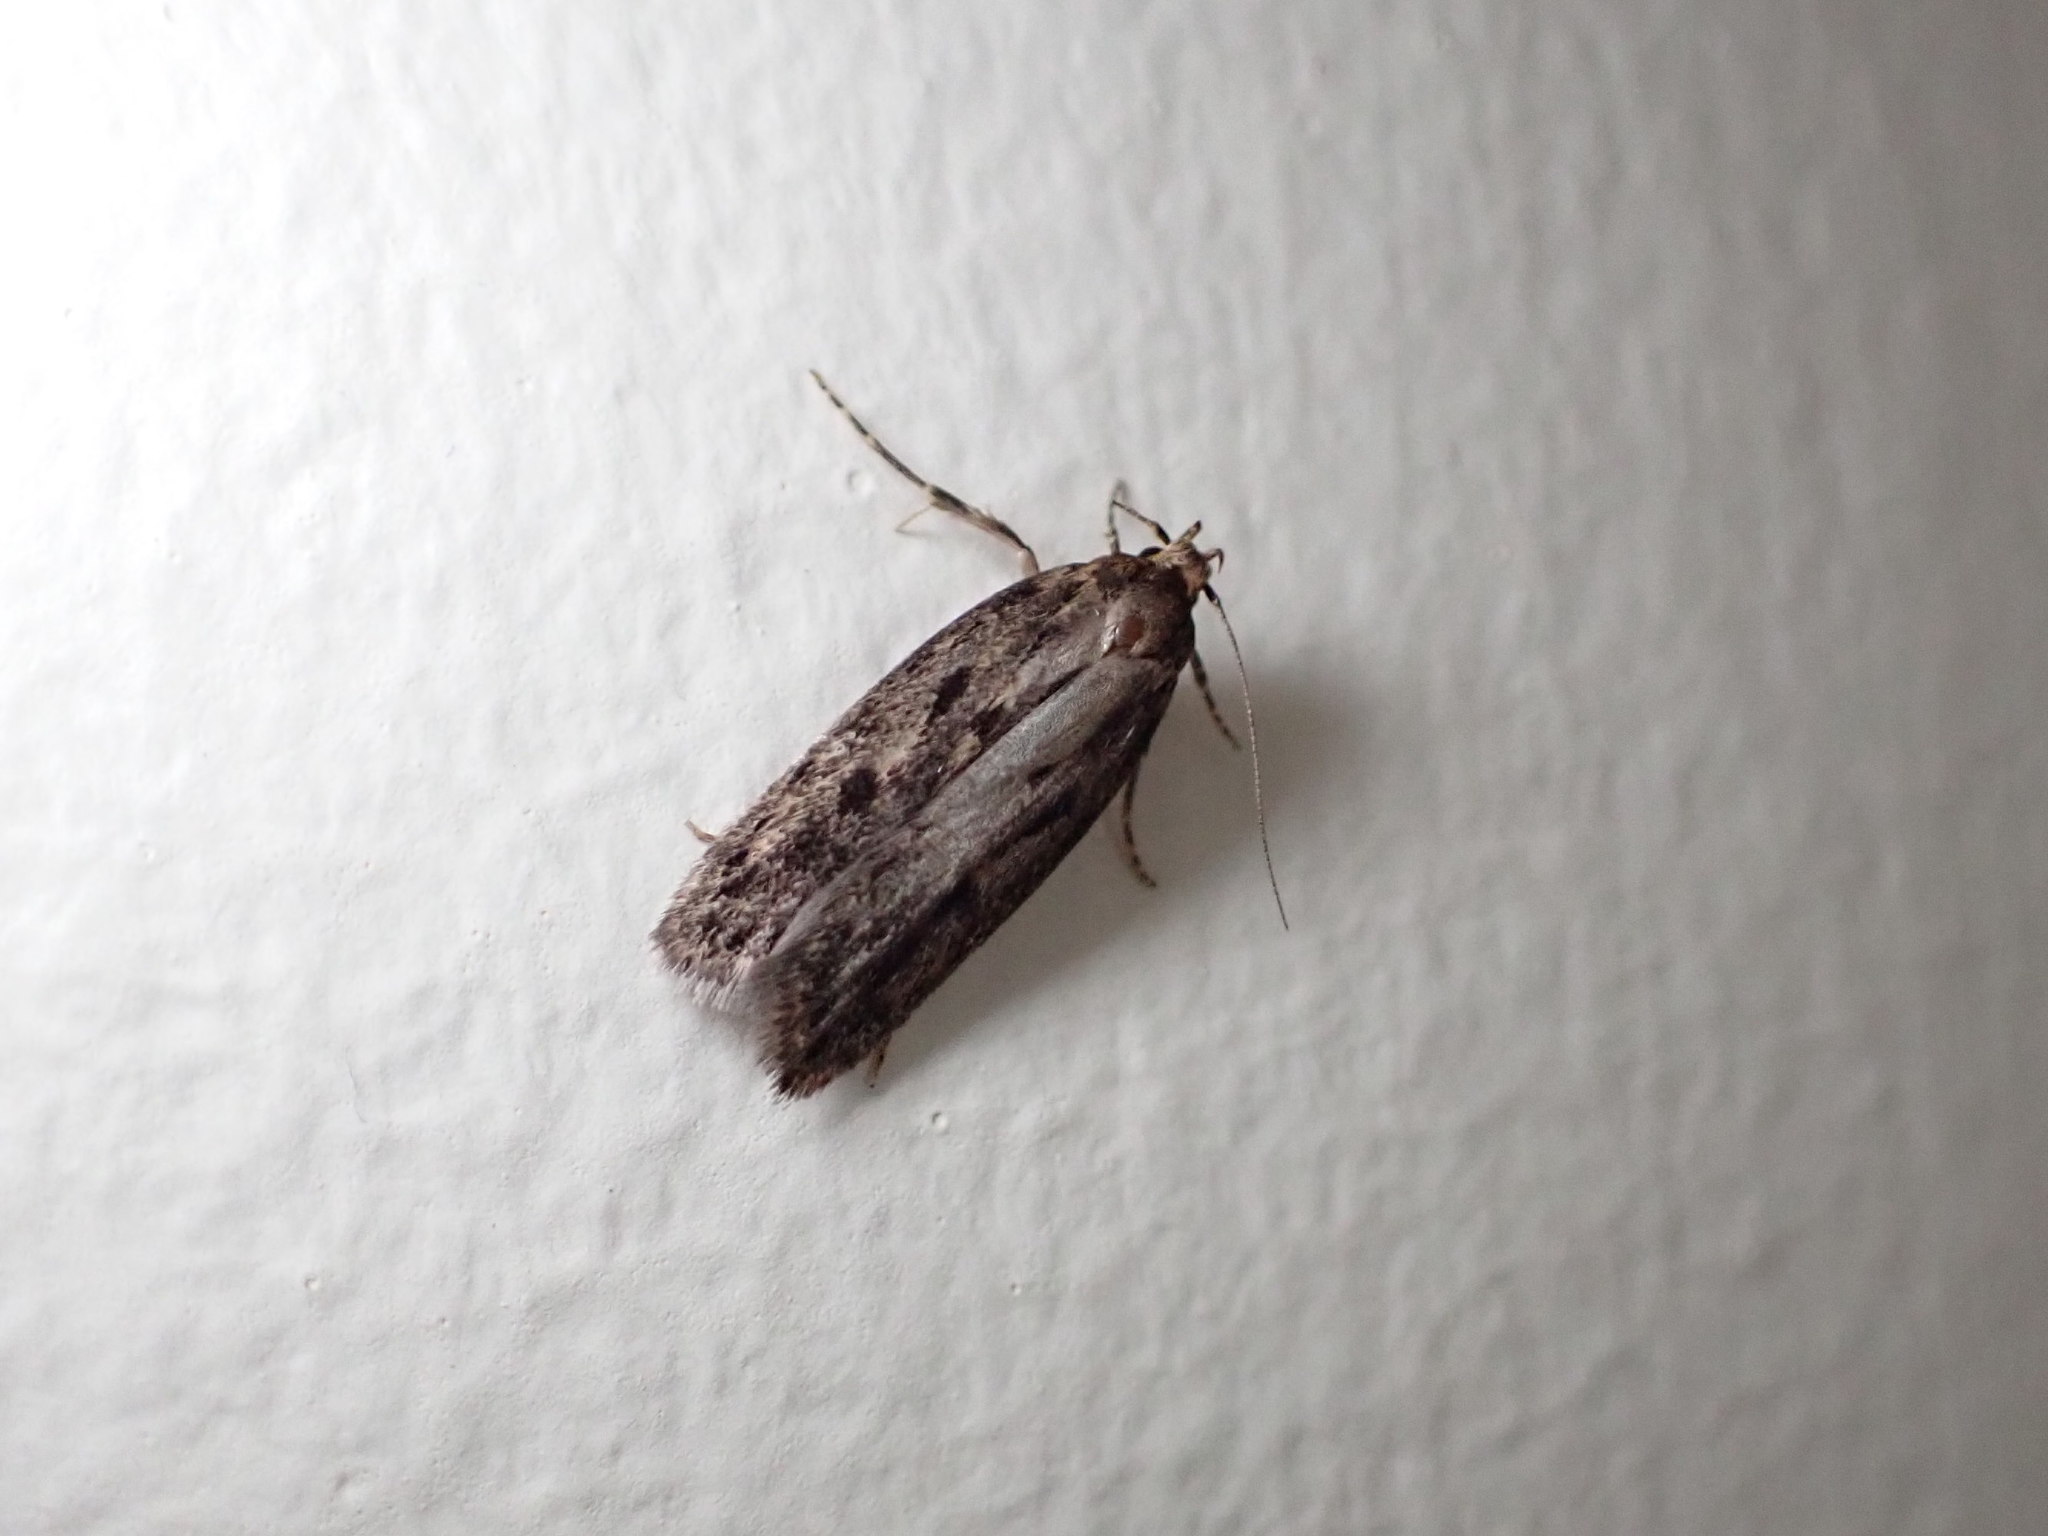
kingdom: Animalia
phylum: Arthropoda
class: Insecta
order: Lepidoptera
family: Oecophoridae
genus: Hofmannophila
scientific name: Hofmannophila pseudospretella
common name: Brown house moth
